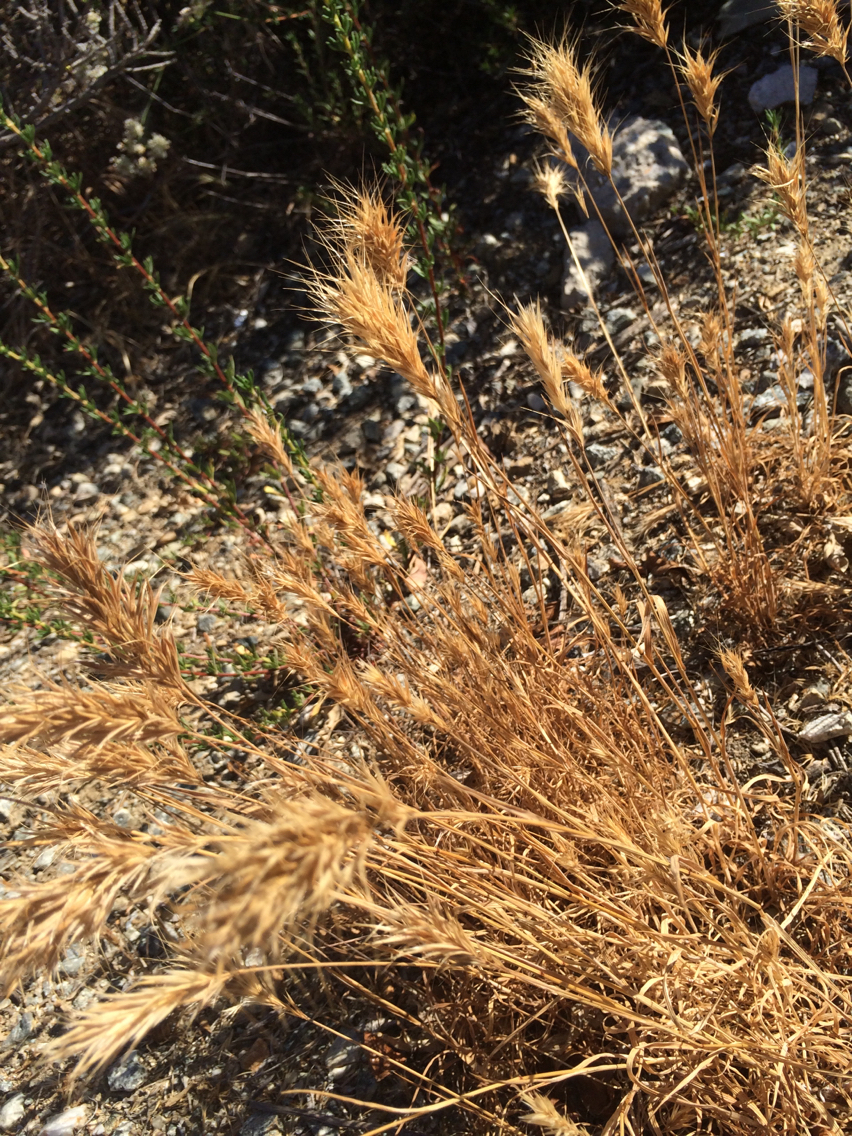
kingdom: Plantae
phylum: Tracheophyta
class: Liliopsida
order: Poales
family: Poaceae
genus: Bromus
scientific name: Bromus madritensis
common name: Compact brome
